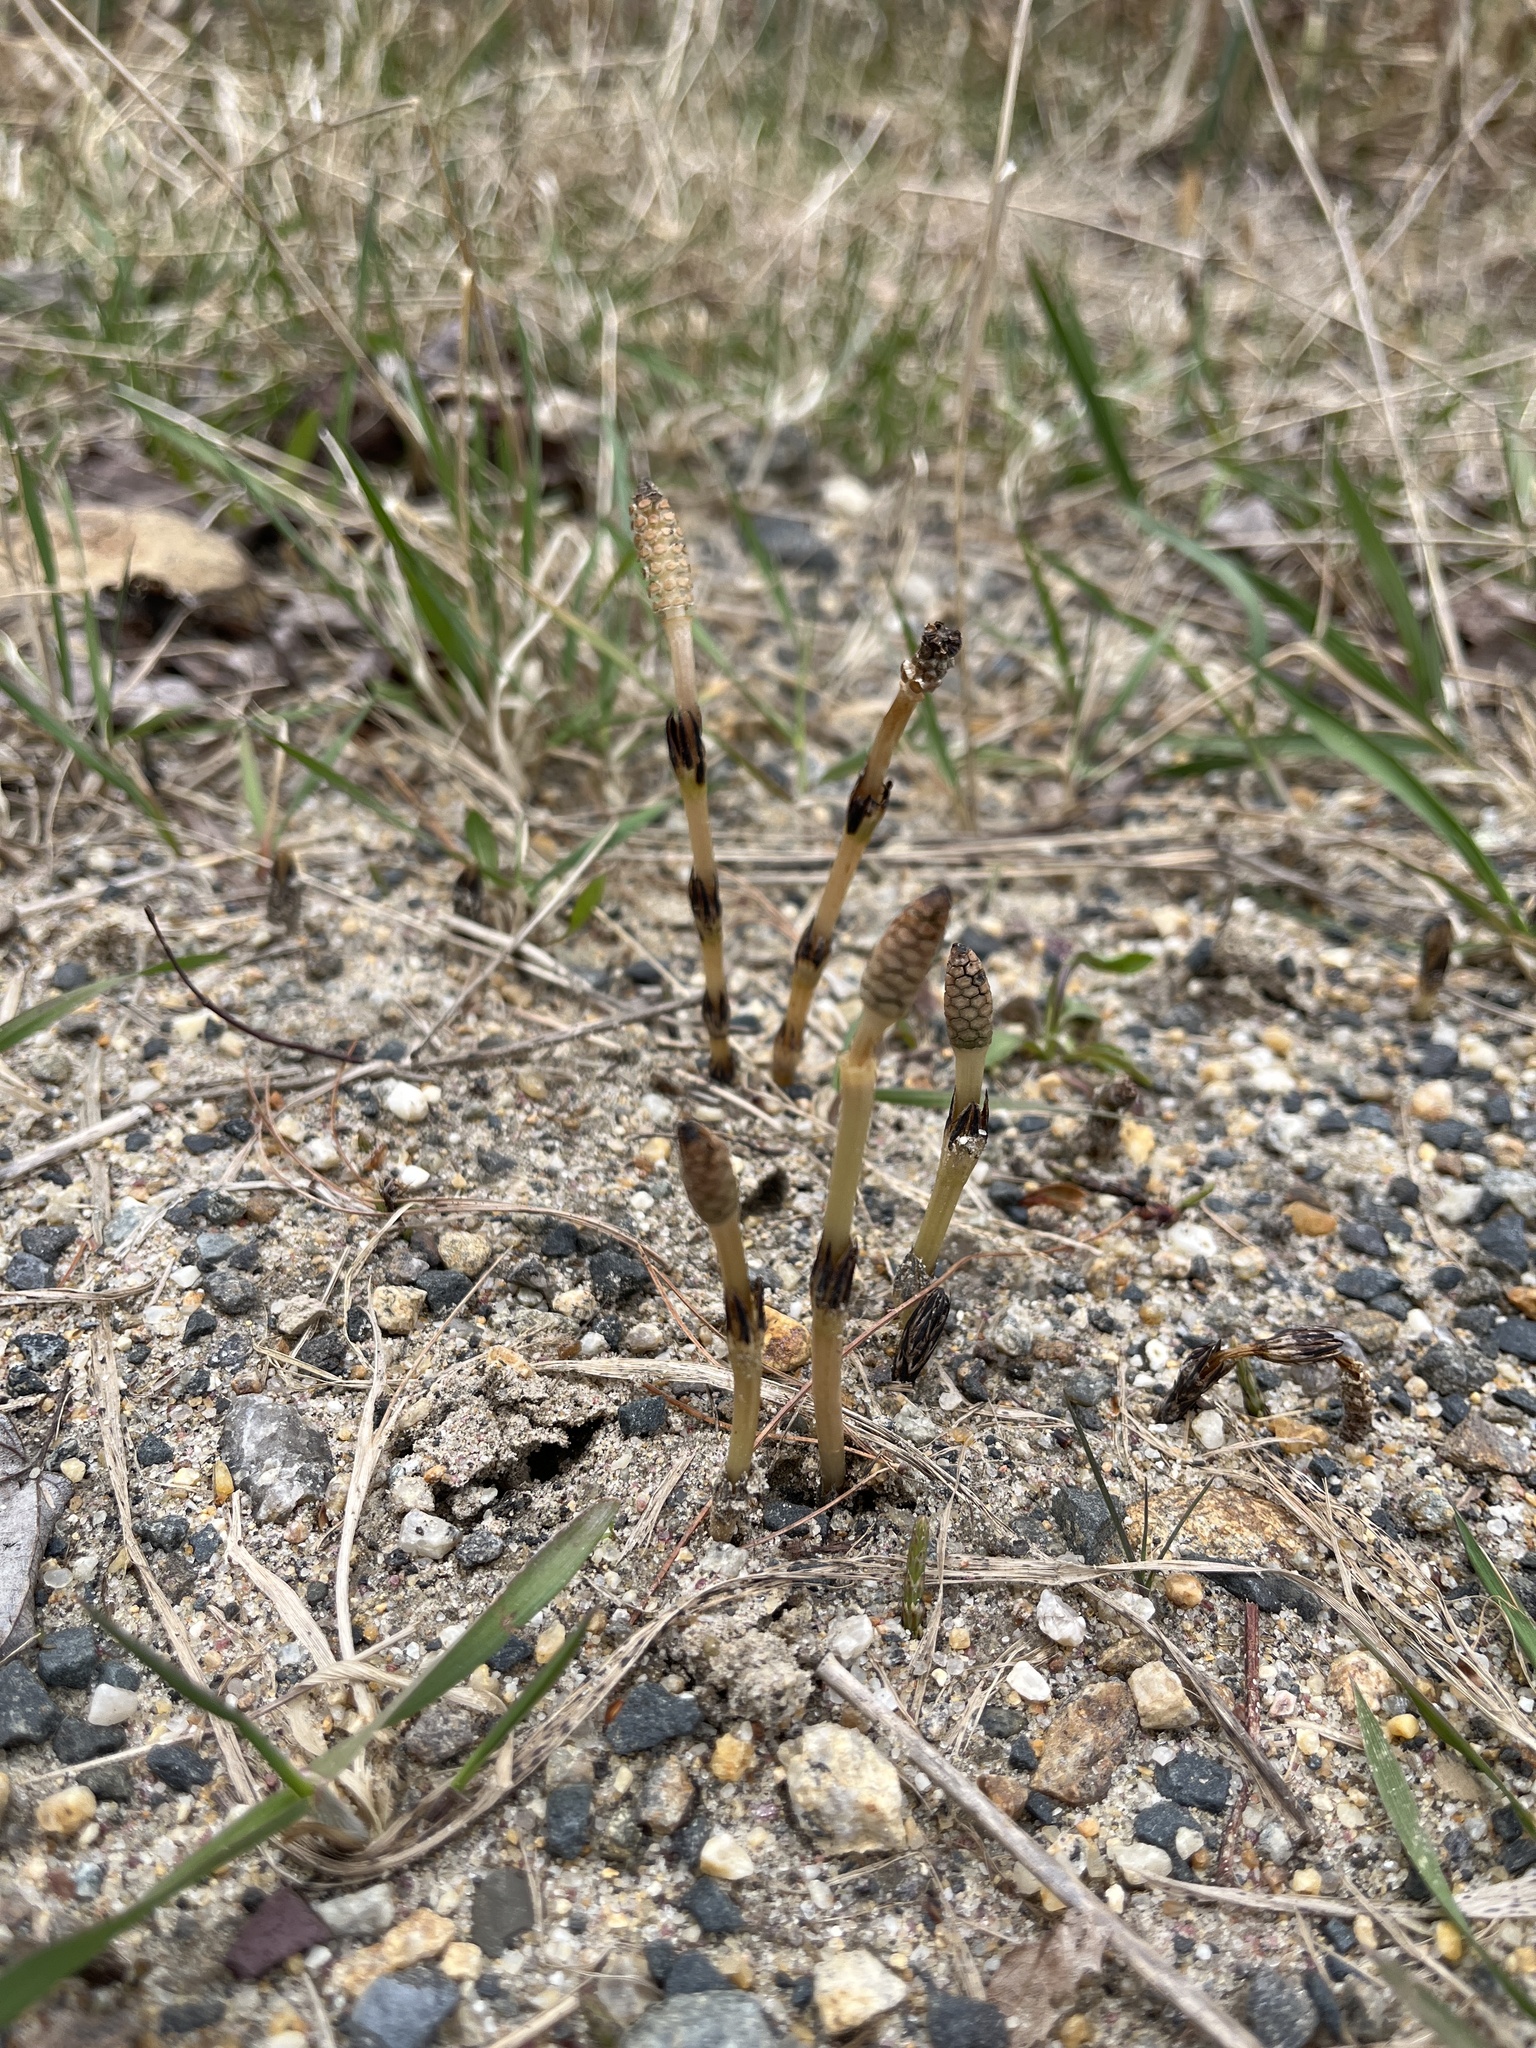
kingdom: Plantae
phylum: Tracheophyta
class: Polypodiopsida
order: Equisetales
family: Equisetaceae
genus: Equisetum
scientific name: Equisetum arvense
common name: Field horsetail
